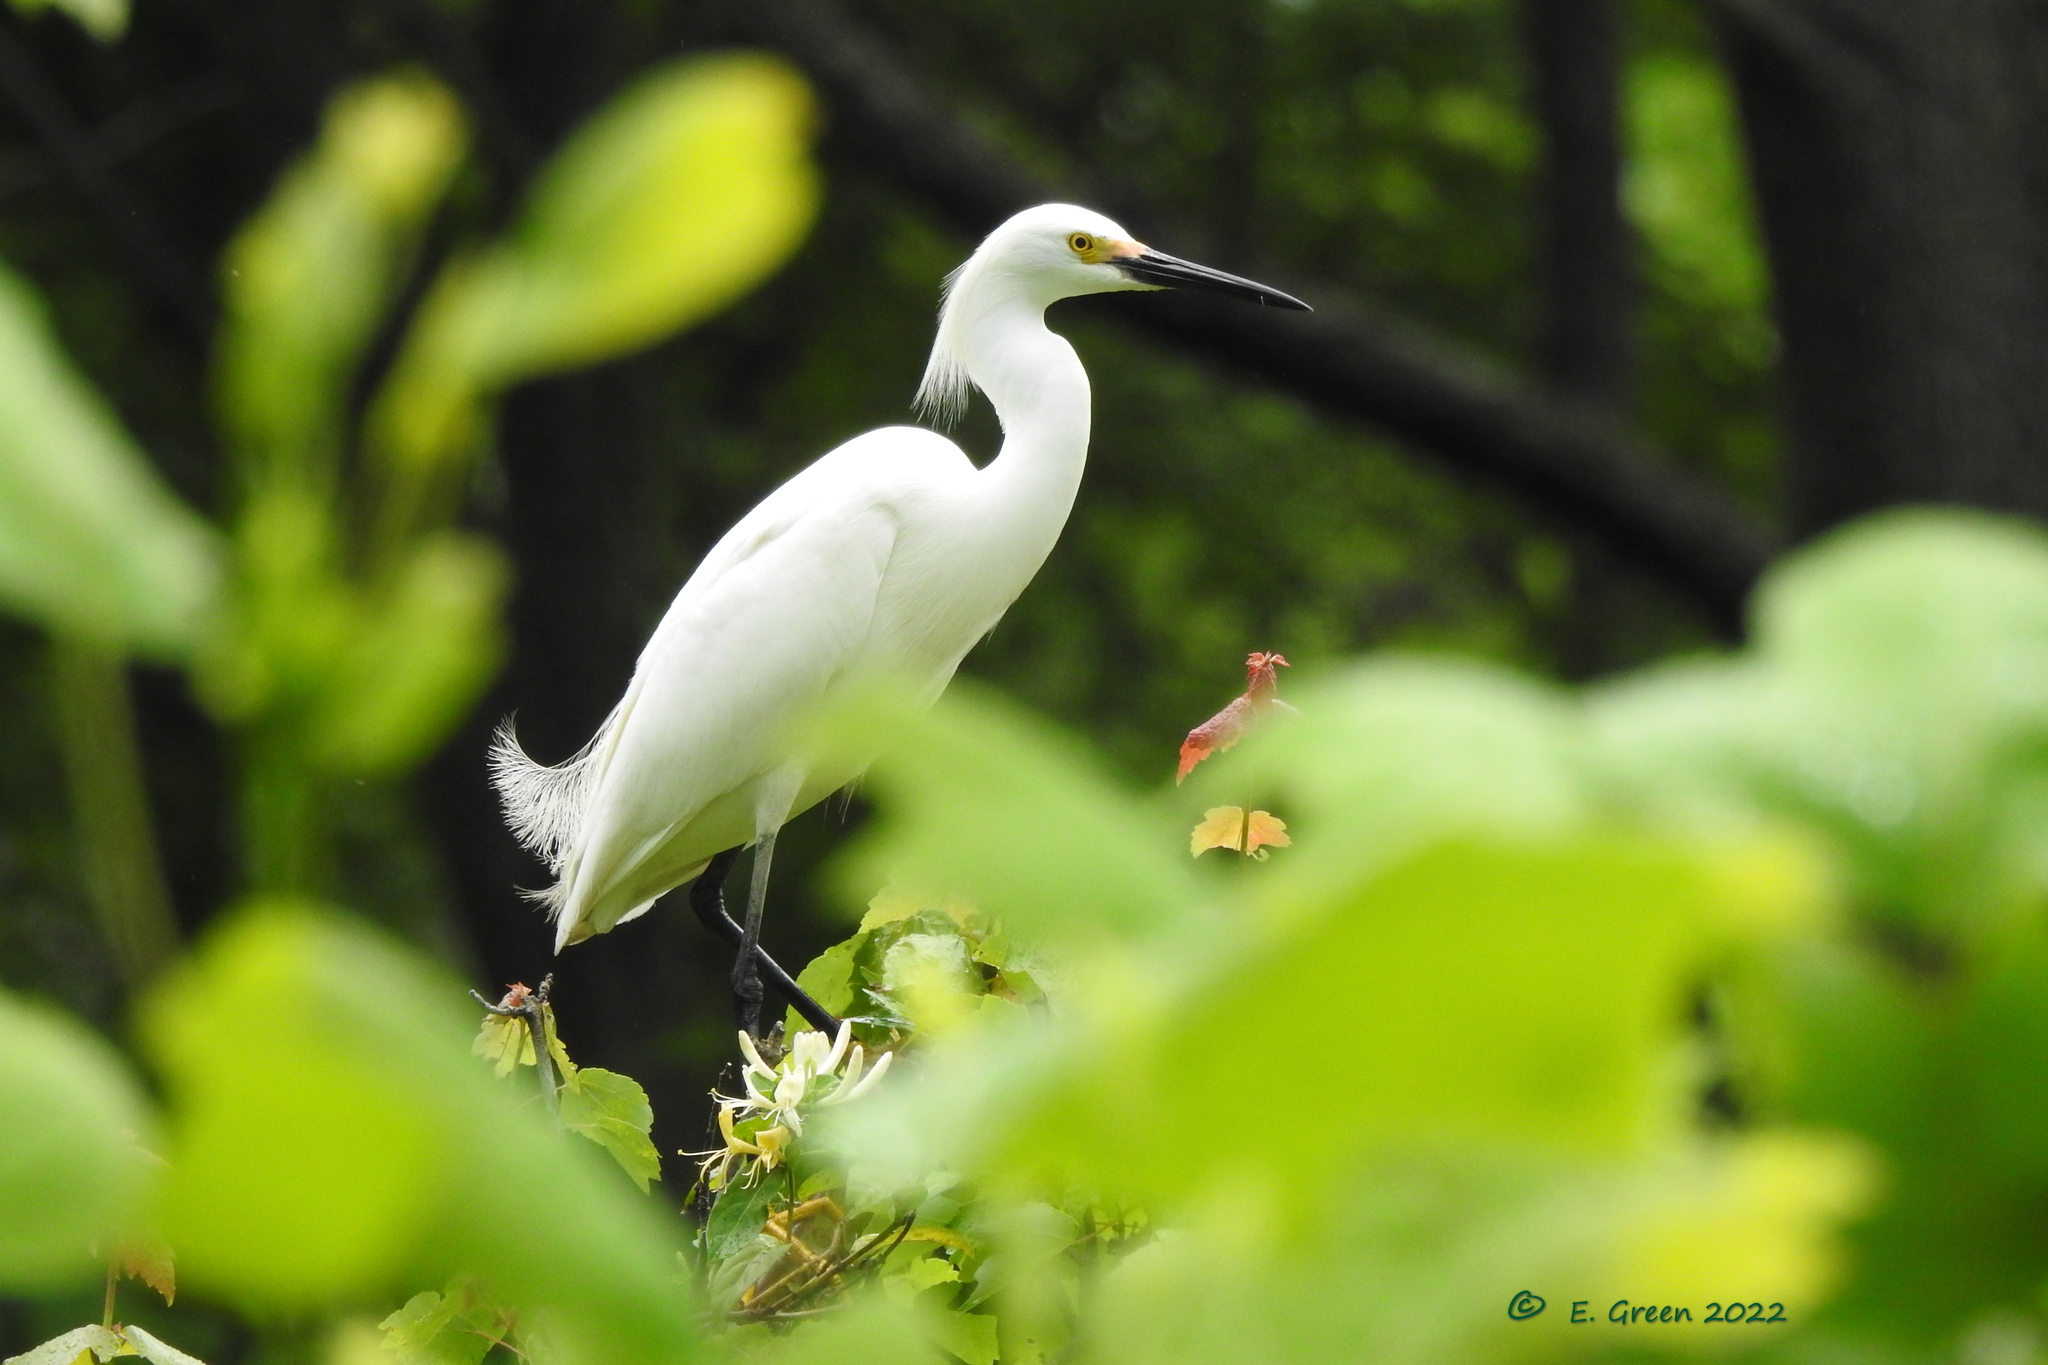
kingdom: Animalia
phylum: Chordata
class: Aves
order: Pelecaniformes
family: Ardeidae
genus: Egretta
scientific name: Egretta thula
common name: Snowy egret
